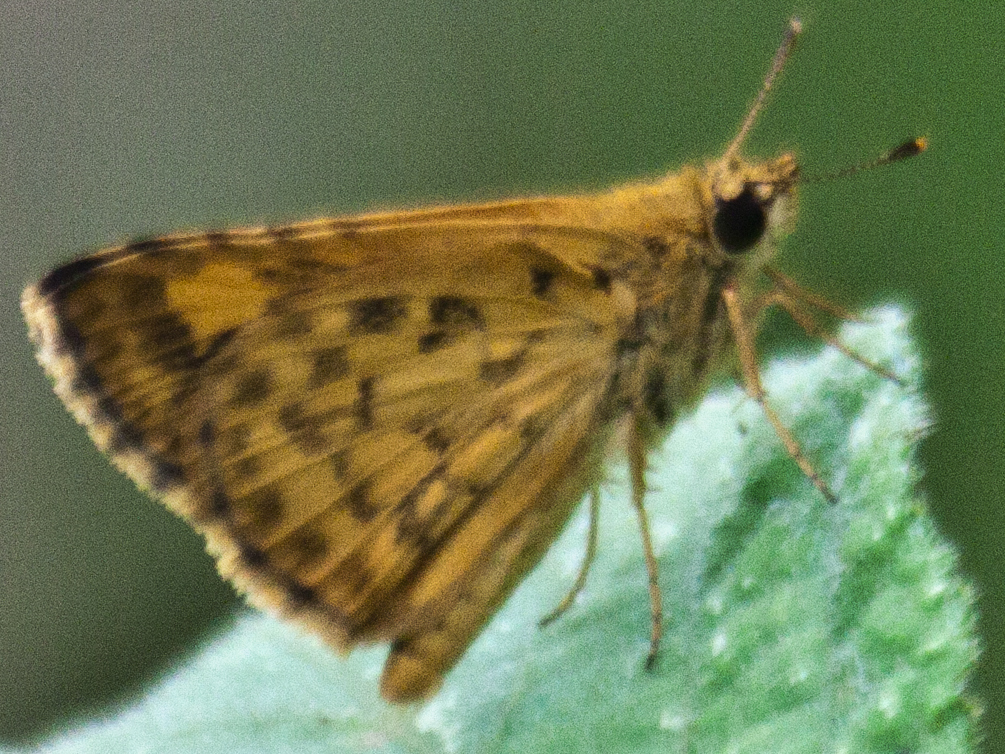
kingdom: Animalia
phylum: Arthropoda
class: Insecta
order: Lepidoptera
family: Hesperiidae
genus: Ampittia
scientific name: Ampittia dioscorides
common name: Common bush hopper
